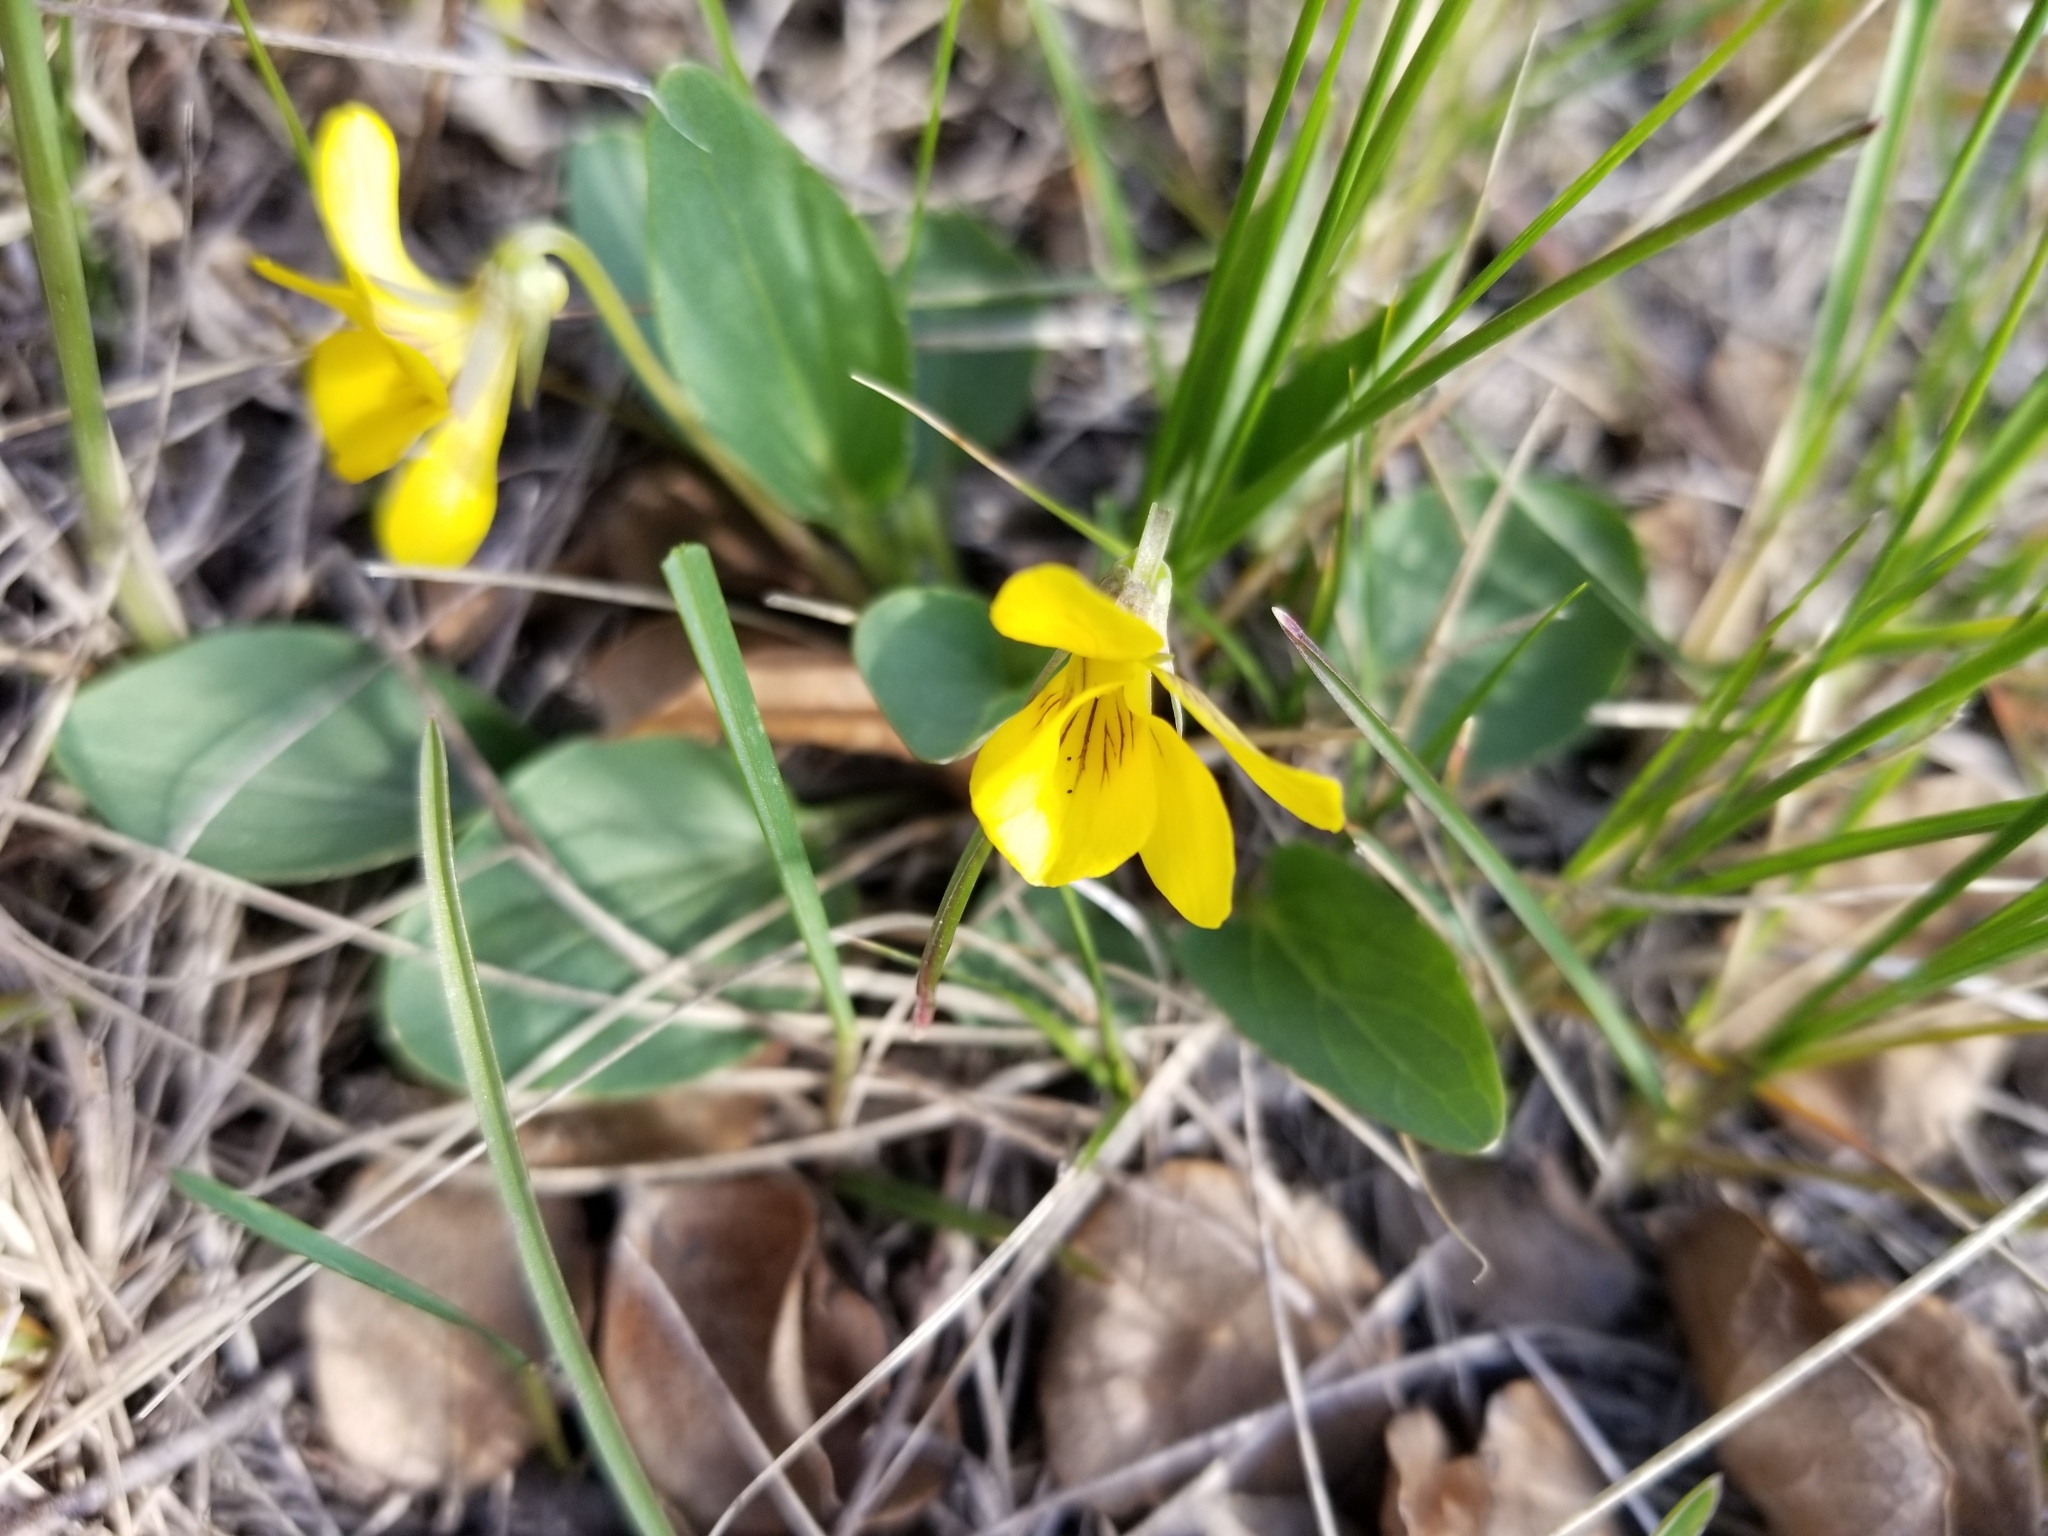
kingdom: Plantae
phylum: Tracheophyta
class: Magnoliopsida
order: Malpighiales
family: Violaceae
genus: Viola
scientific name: Viola nuttallii
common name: Yellow prairie violet
